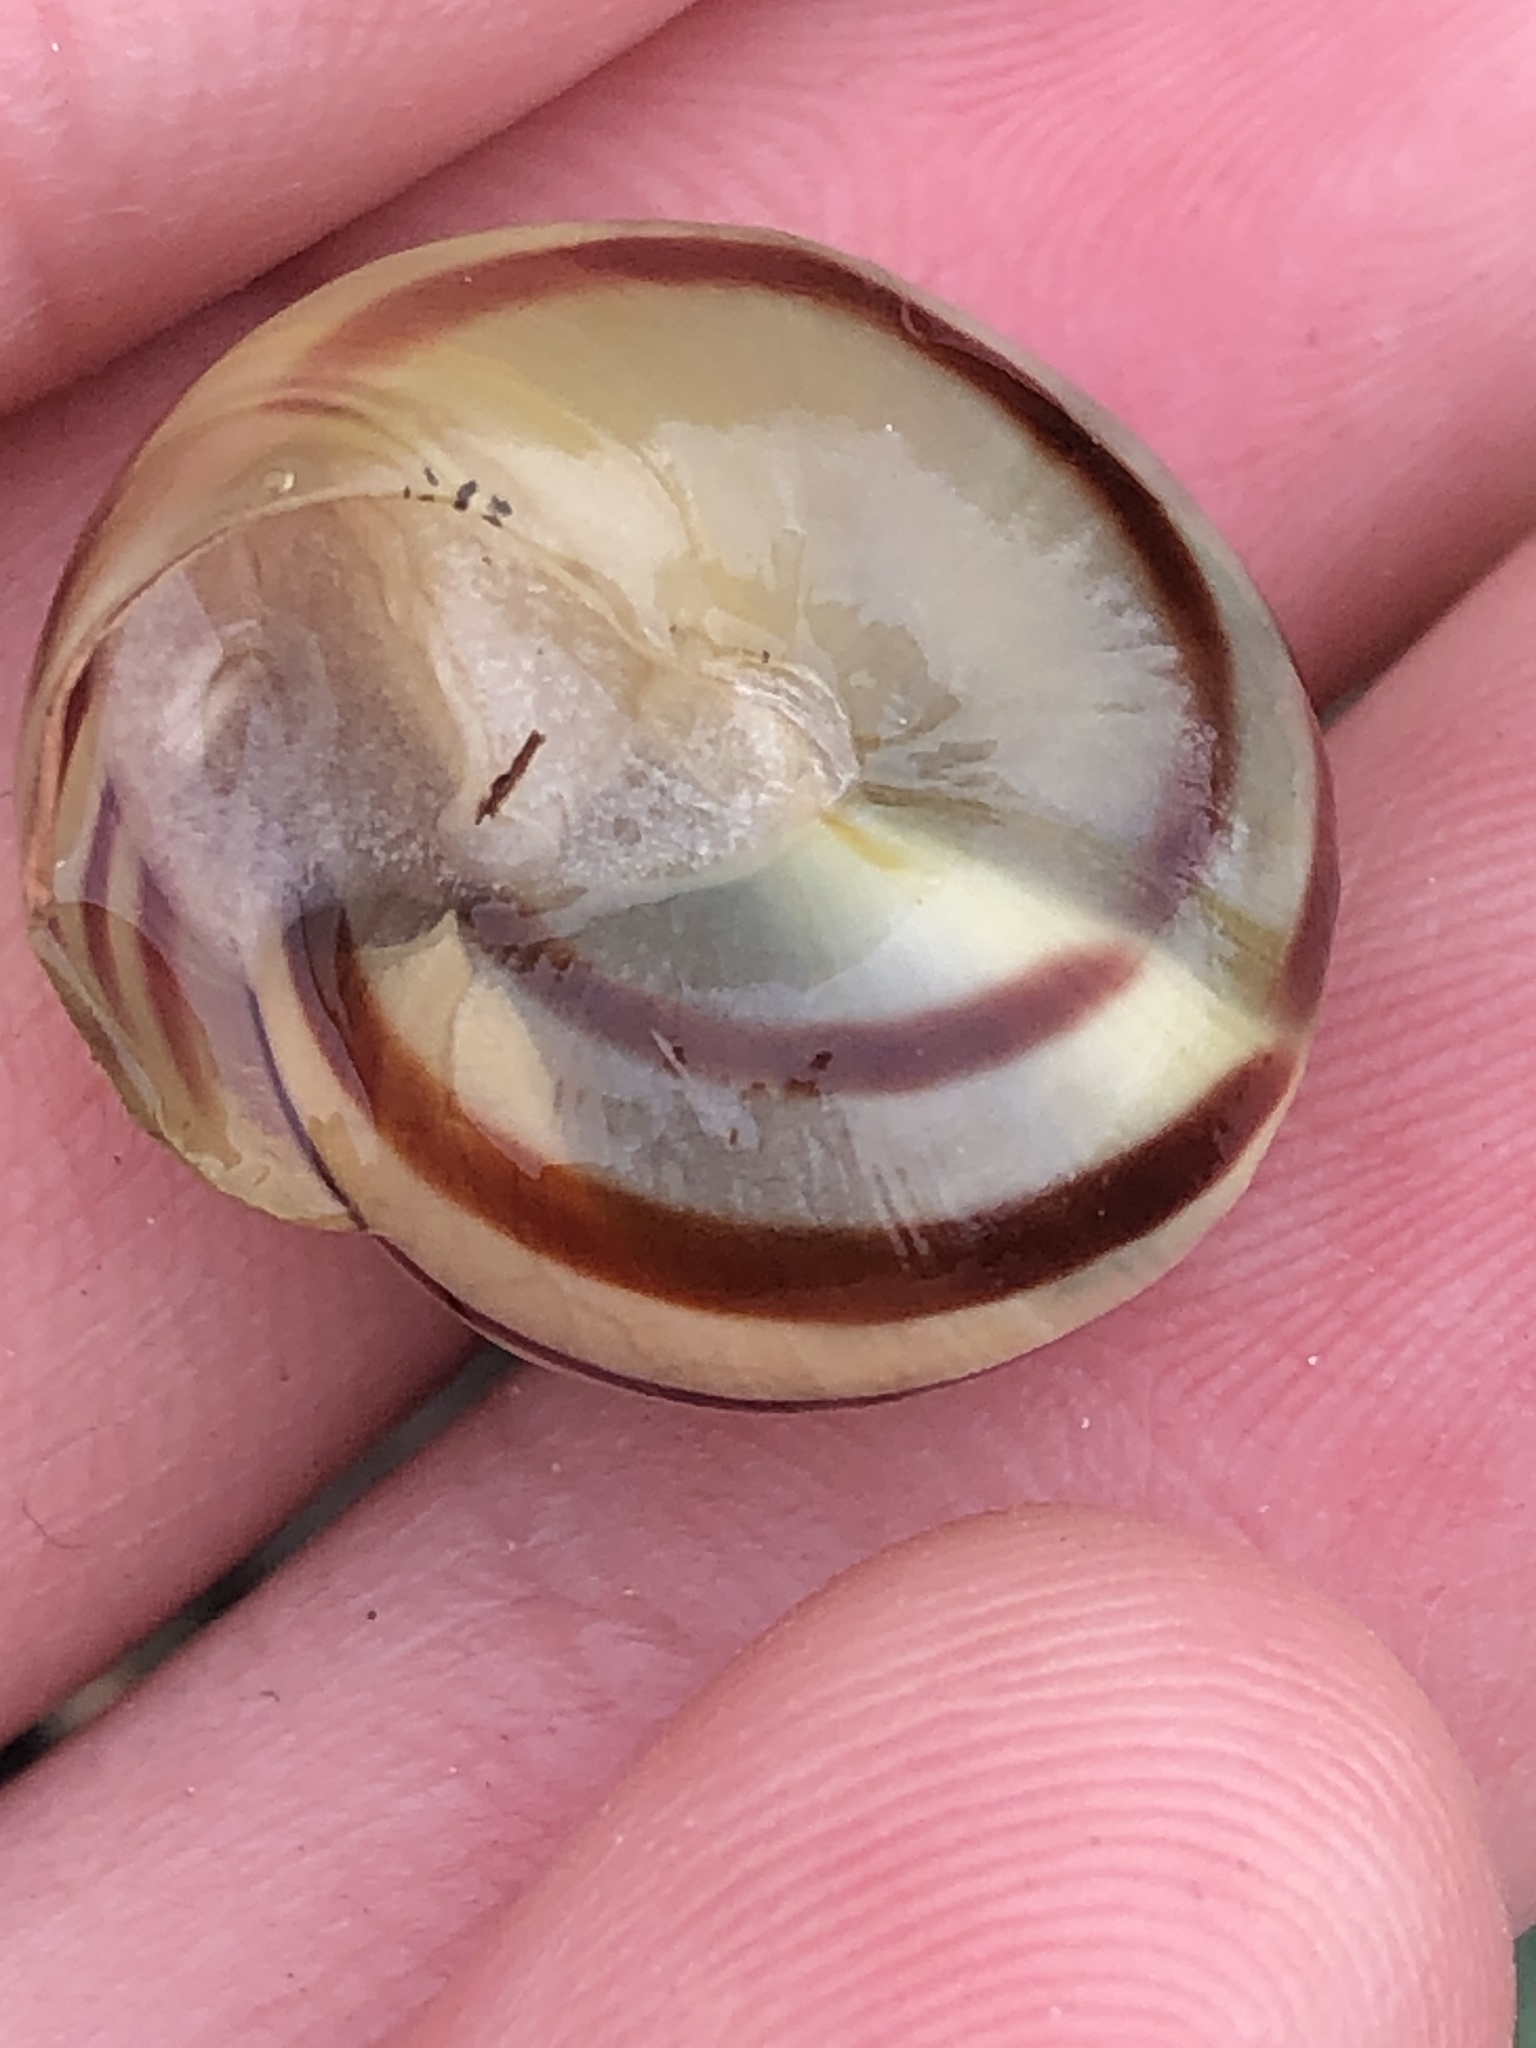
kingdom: Animalia
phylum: Mollusca
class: Gastropoda
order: Stylommatophora
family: Helicidae
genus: Cepaea
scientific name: Cepaea
